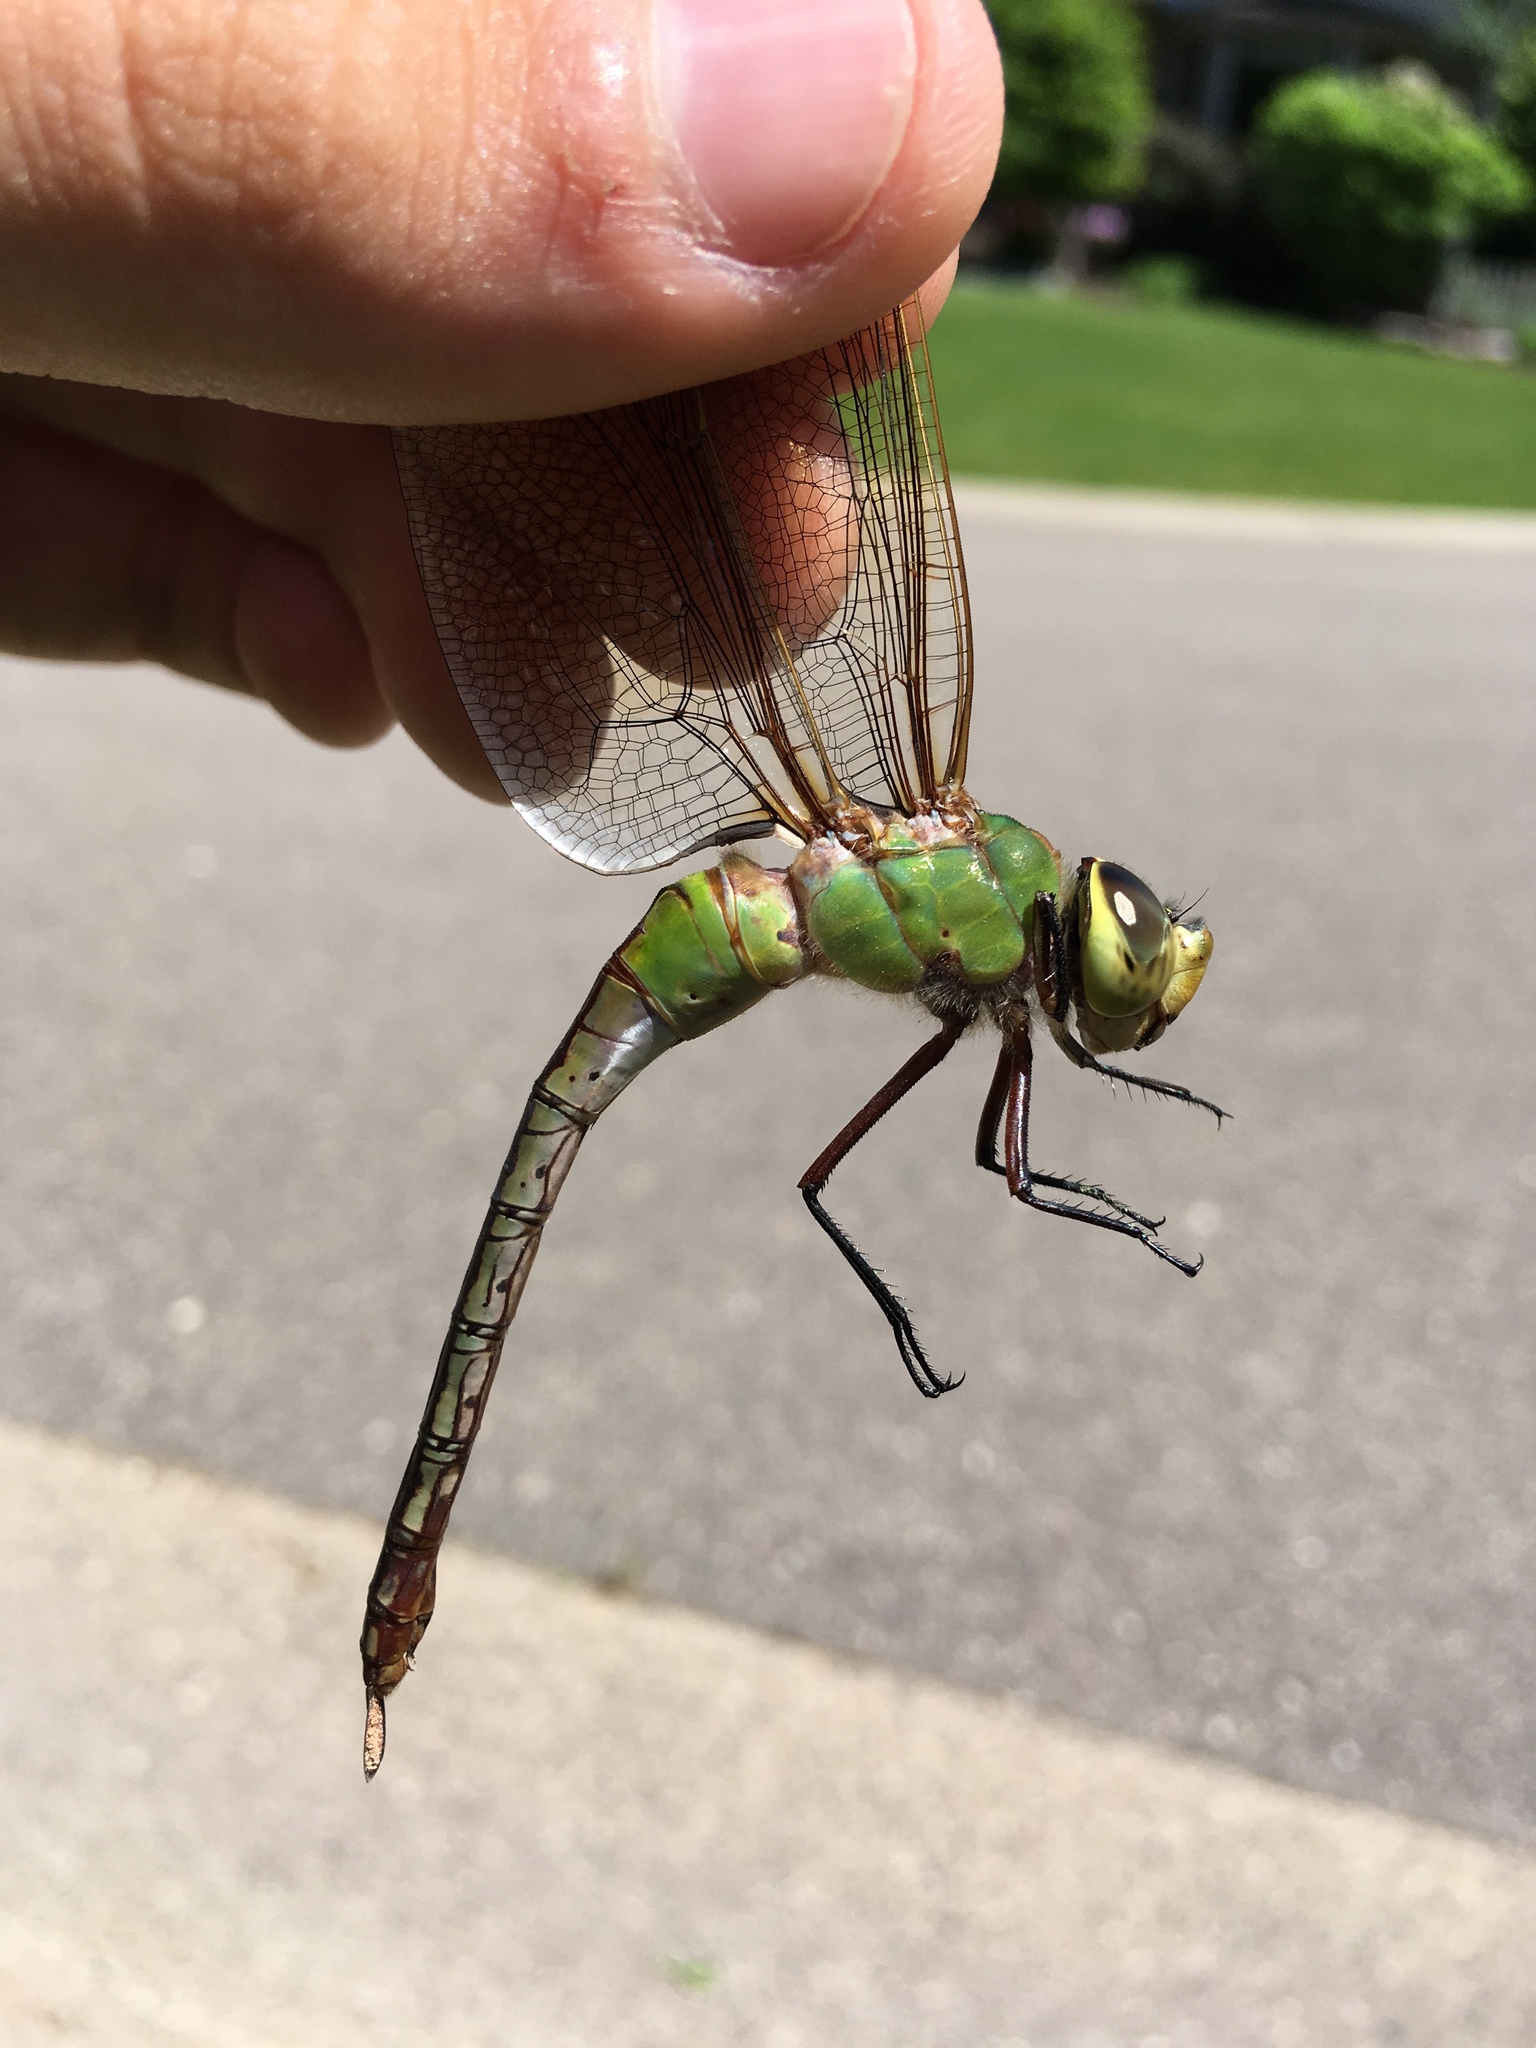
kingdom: Animalia
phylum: Arthropoda
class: Insecta
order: Odonata
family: Aeshnidae
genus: Anax
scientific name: Anax junius
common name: Common green darner
